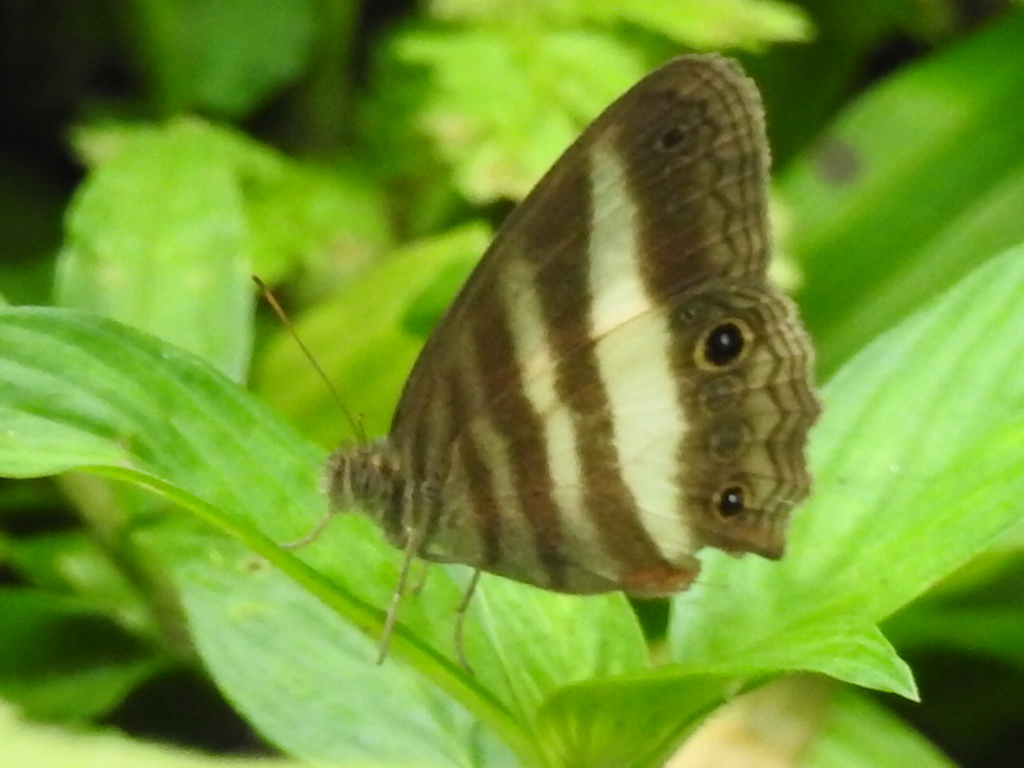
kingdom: Animalia
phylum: Arthropoda
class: Insecta
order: Lepidoptera
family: Nymphalidae
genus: Pareuptychia
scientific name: Pareuptychia hesione
